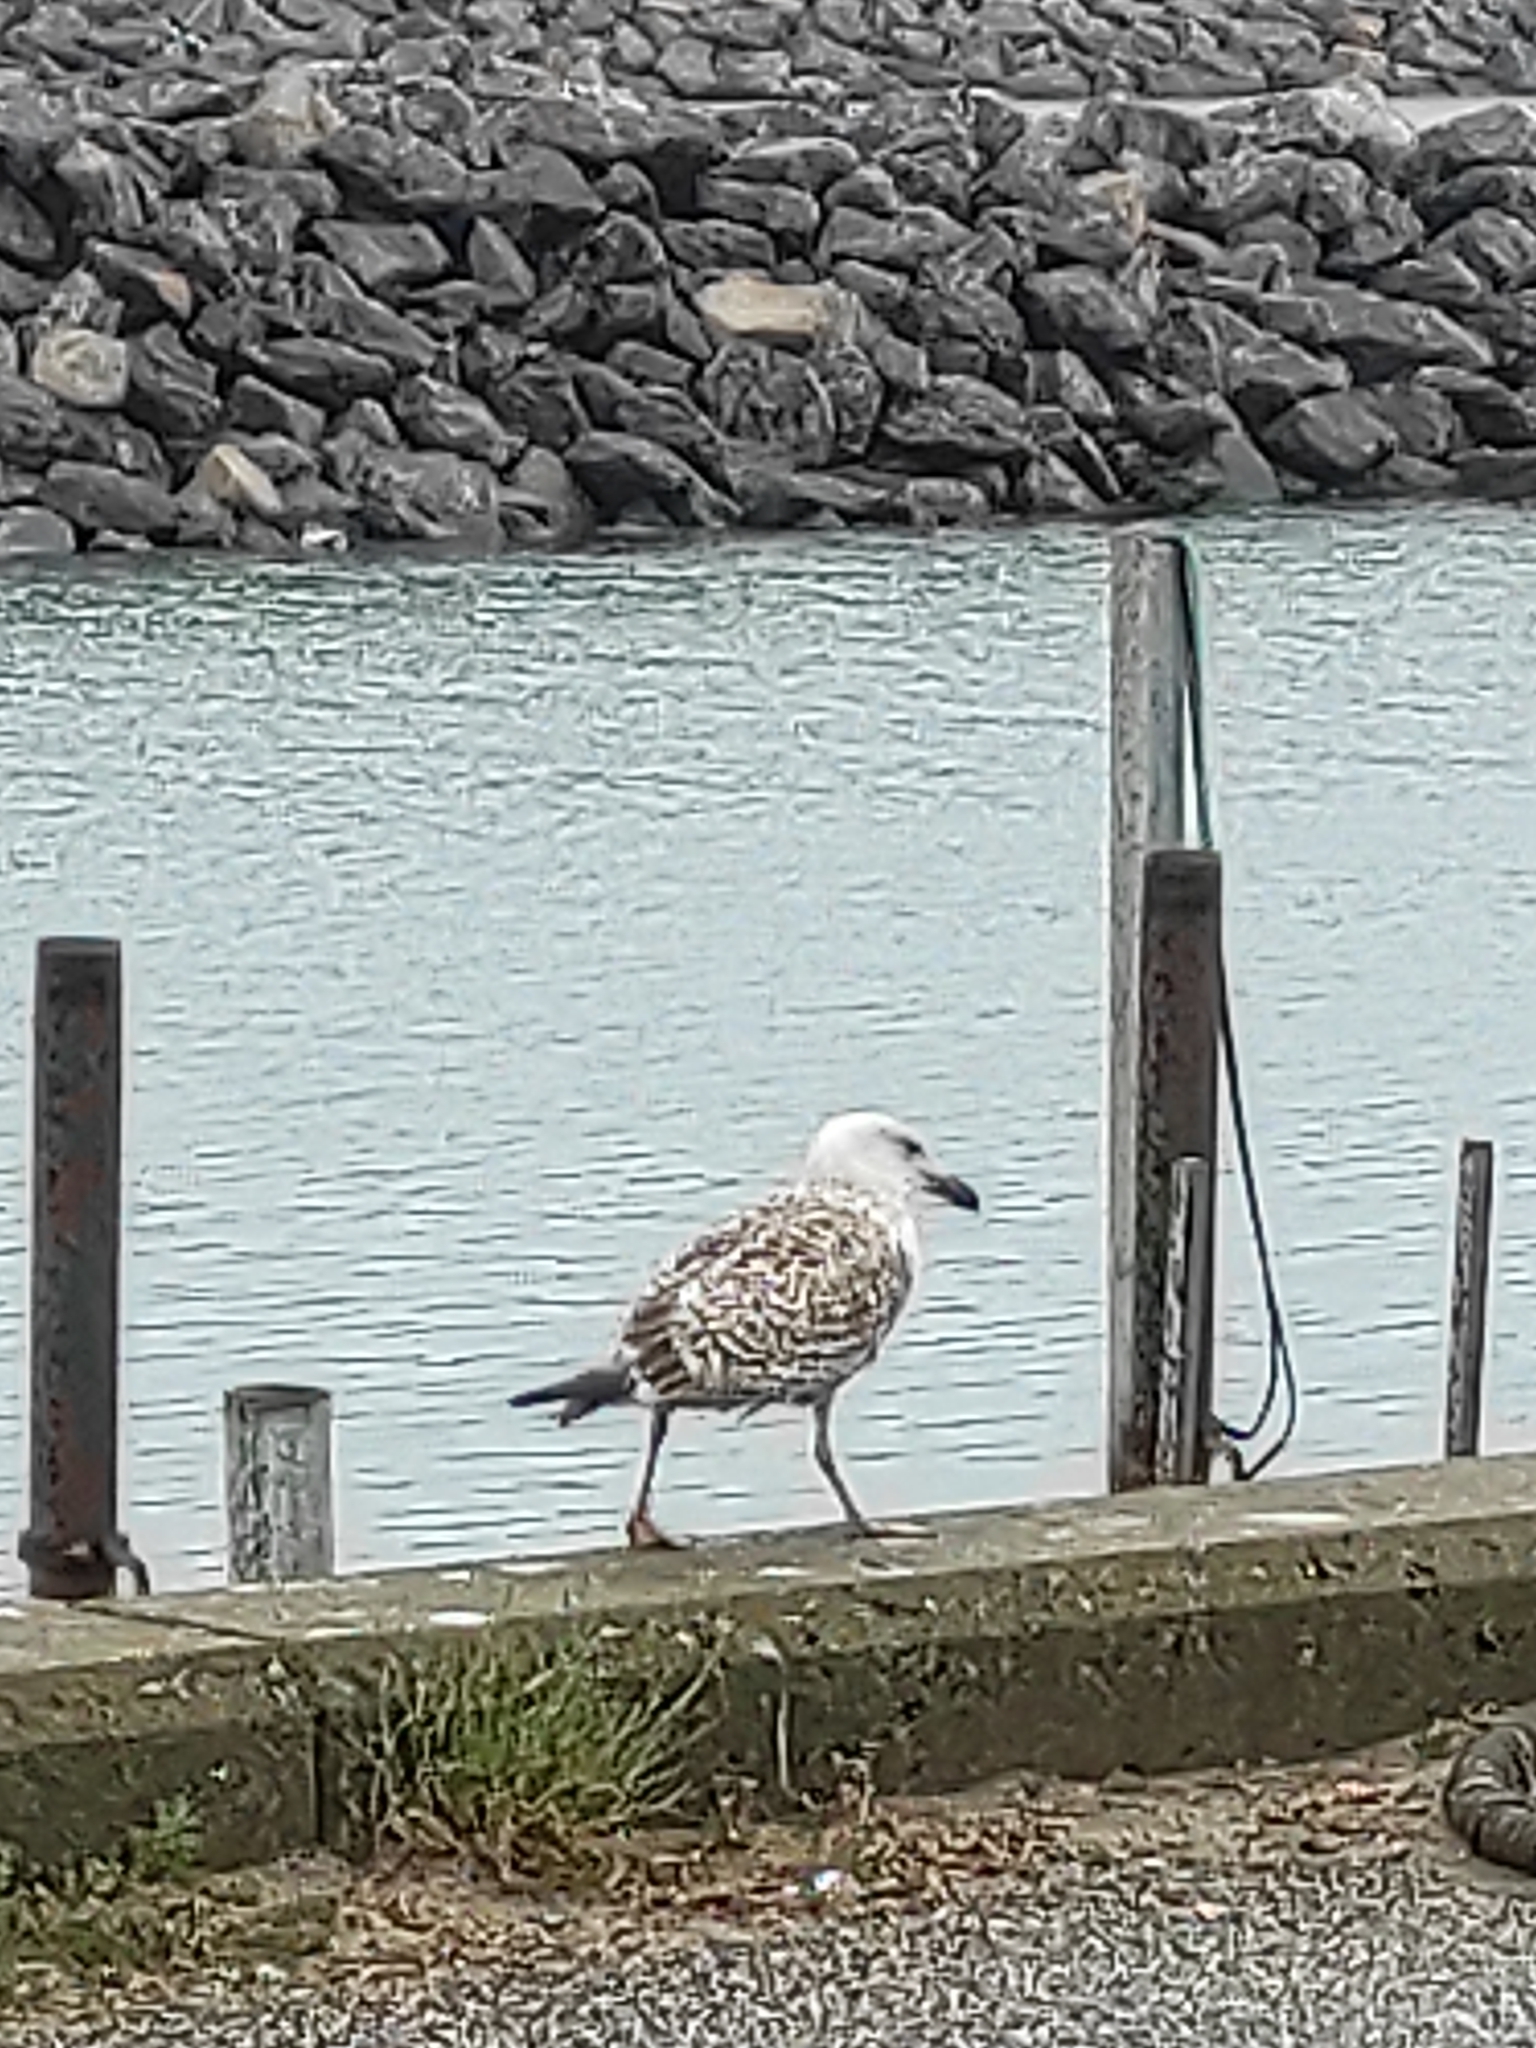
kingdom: Animalia
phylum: Chordata
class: Aves
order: Charadriiformes
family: Laridae
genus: Larus
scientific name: Larus marinus
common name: Great black-backed gull
